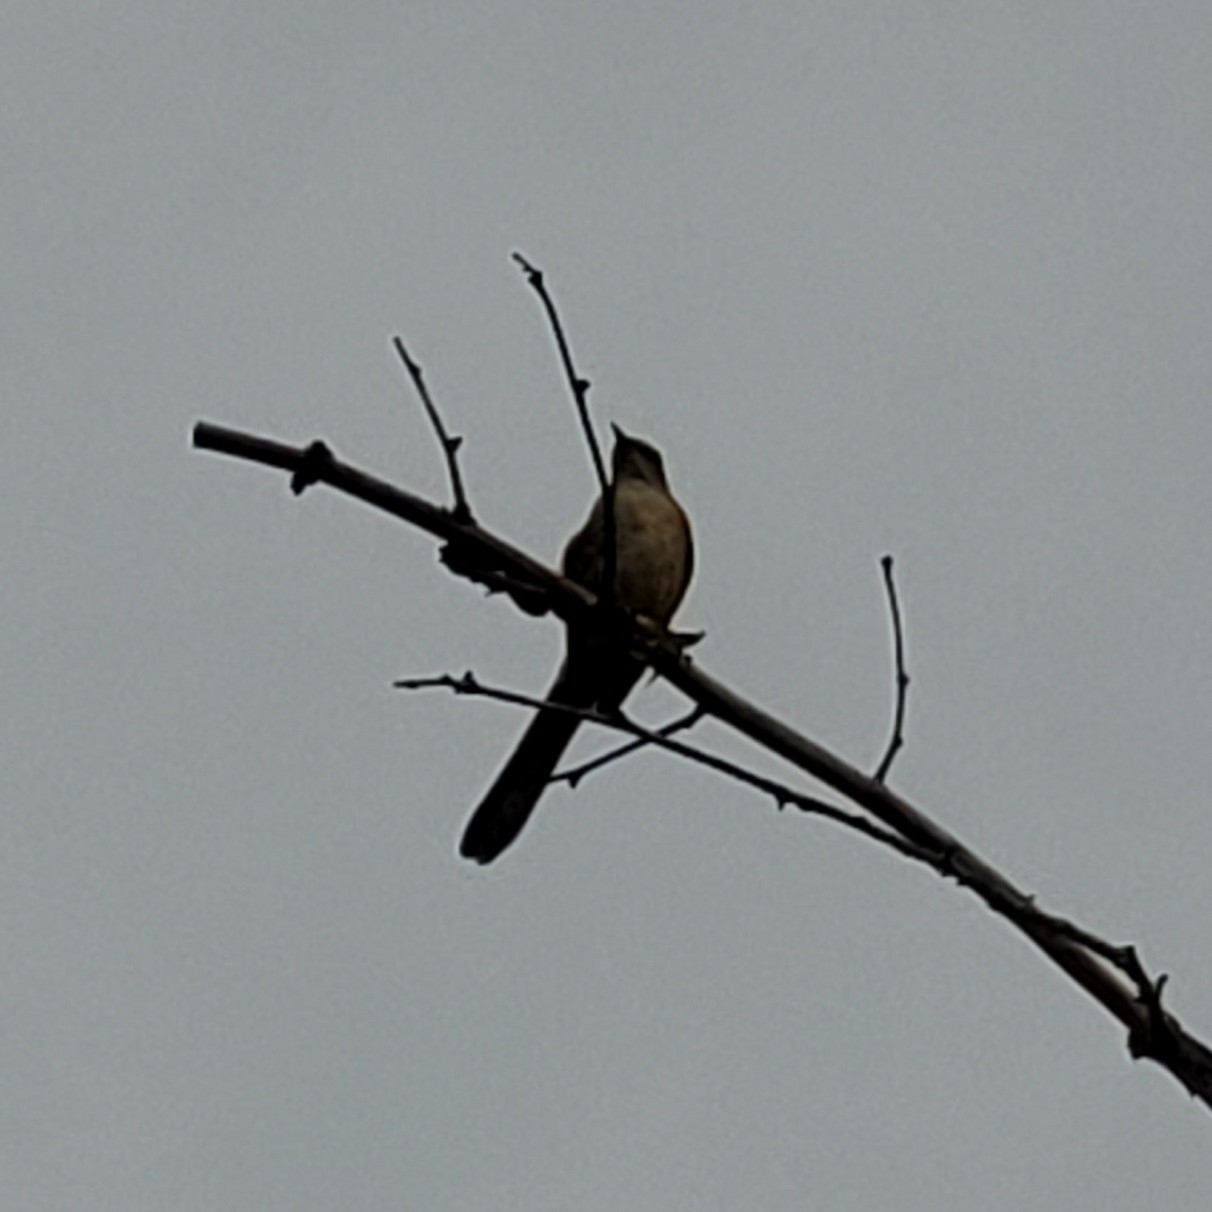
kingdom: Animalia
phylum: Chordata
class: Aves
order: Passeriformes
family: Mimidae
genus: Mimus
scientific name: Mimus polyglottos
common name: Northern mockingbird
